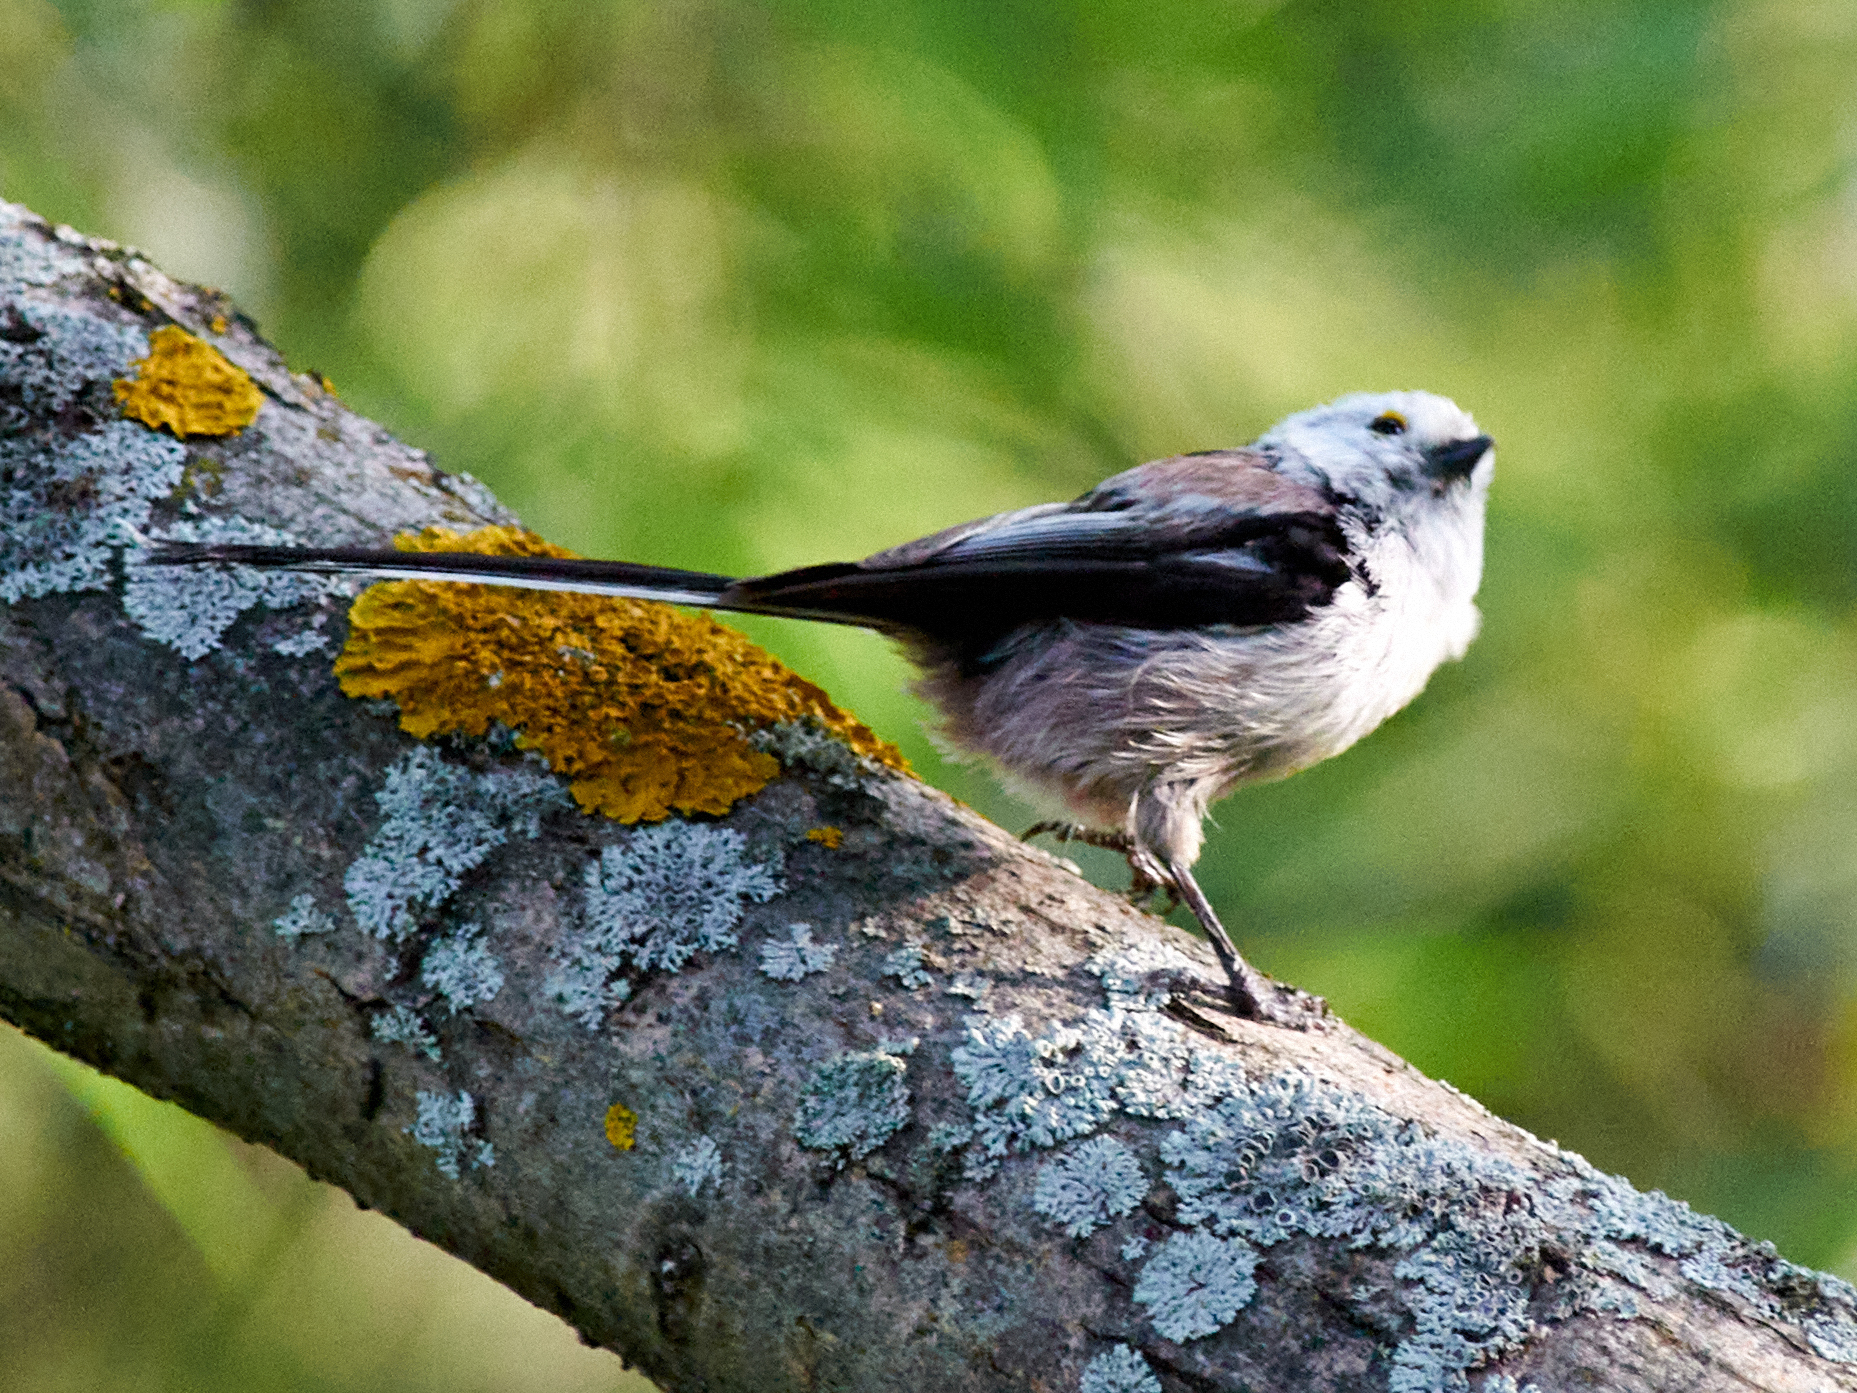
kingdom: Animalia
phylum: Chordata
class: Aves
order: Passeriformes
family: Aegithalidae
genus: Aegithalos
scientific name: Aegithalos caudatus
